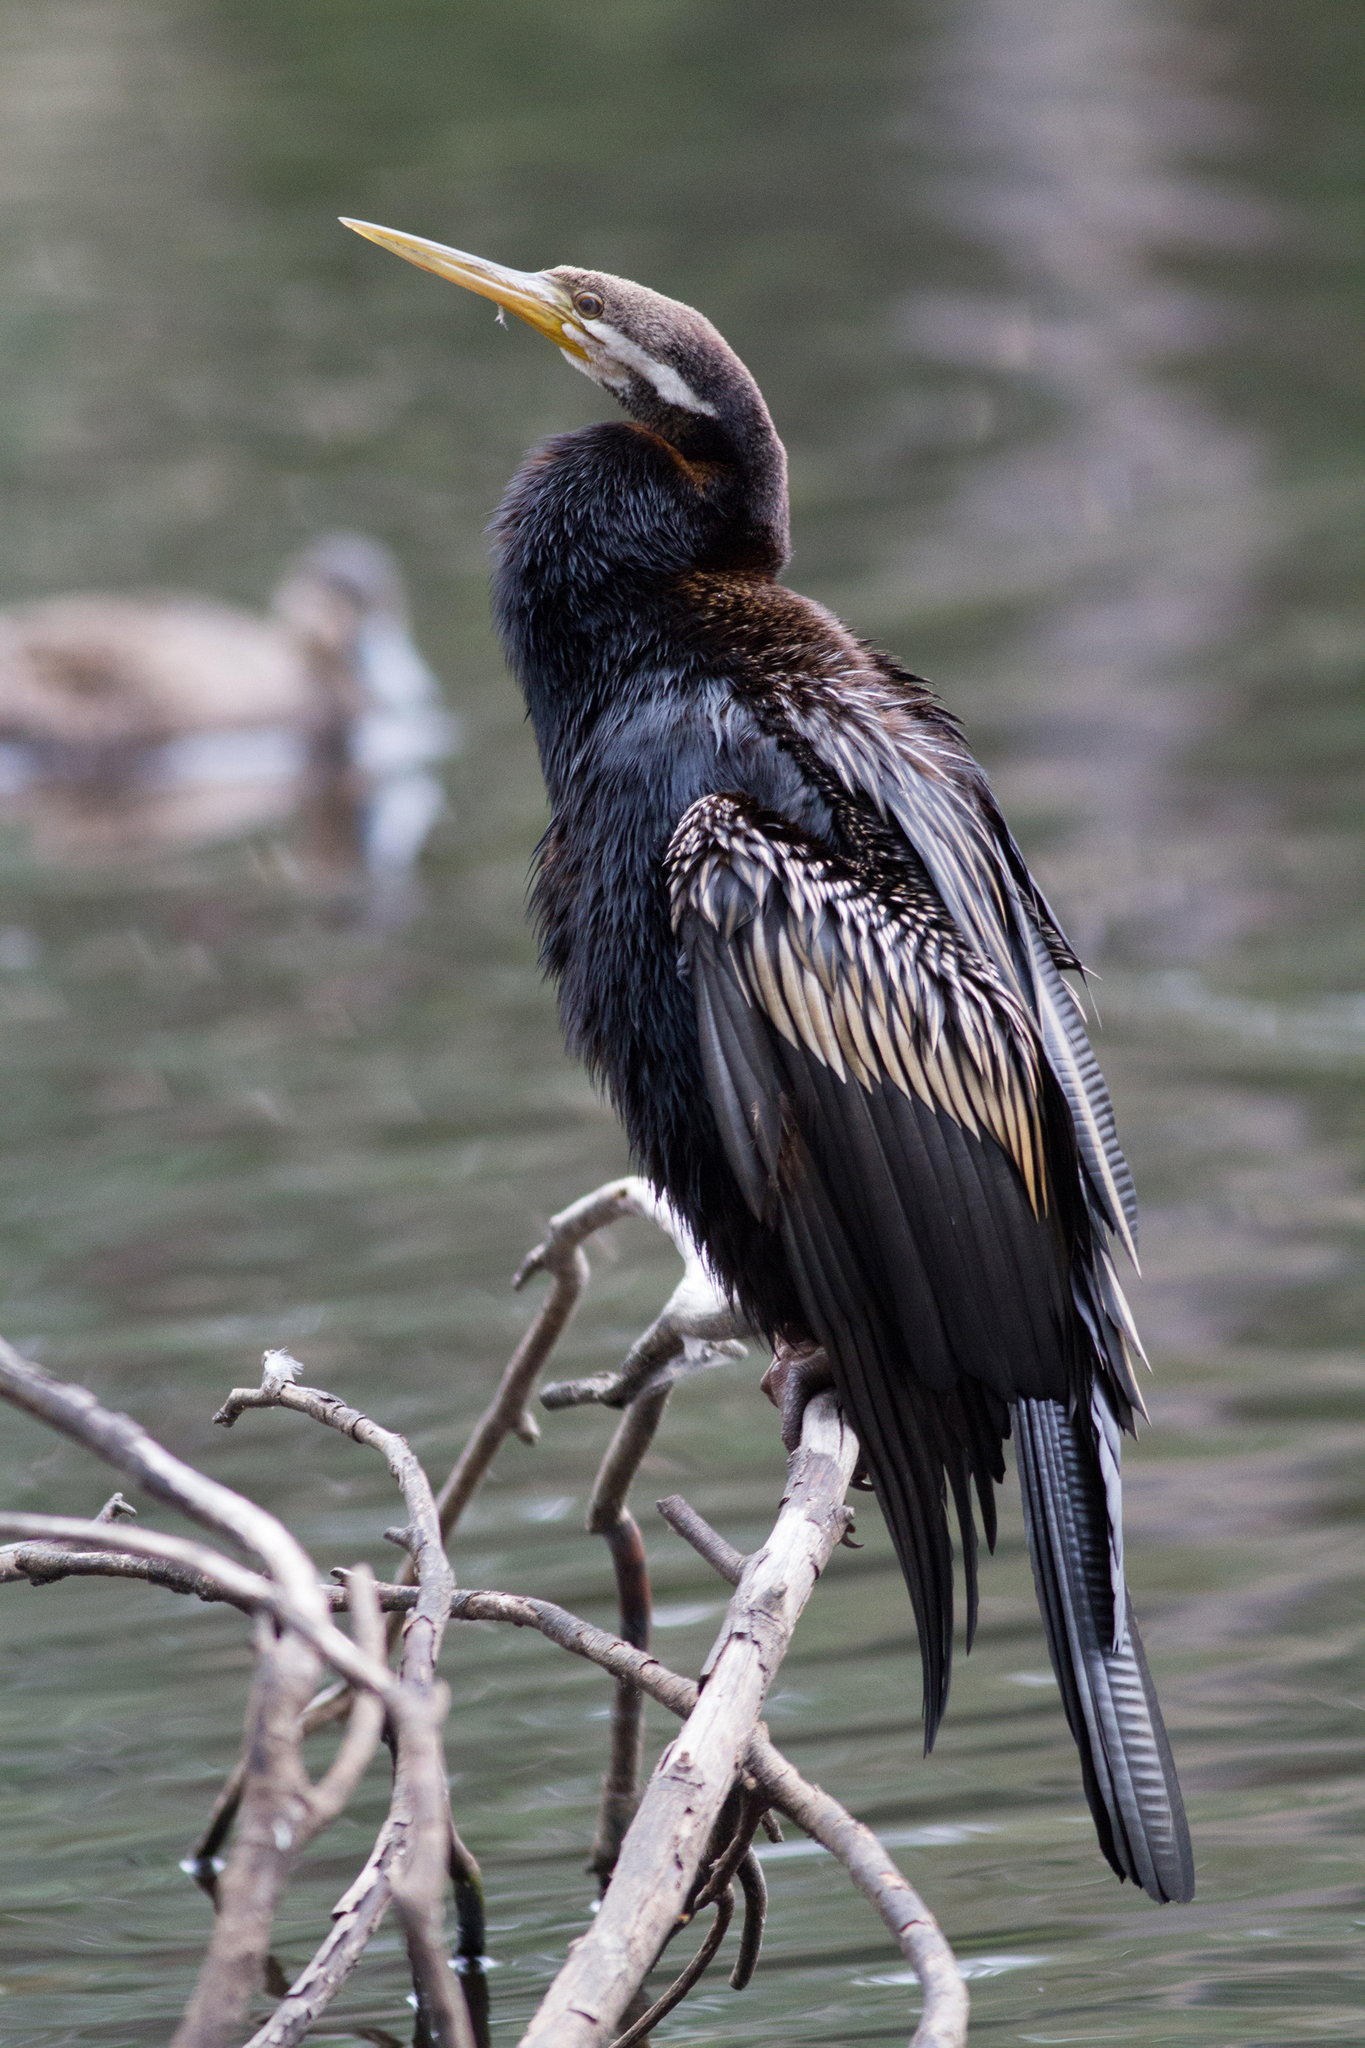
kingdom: Animalia
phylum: Chordata
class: Aves
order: Suliformes
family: Anhingidae
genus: Anhinga
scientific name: Anhinga novaehollandiae
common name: Australasian darter
